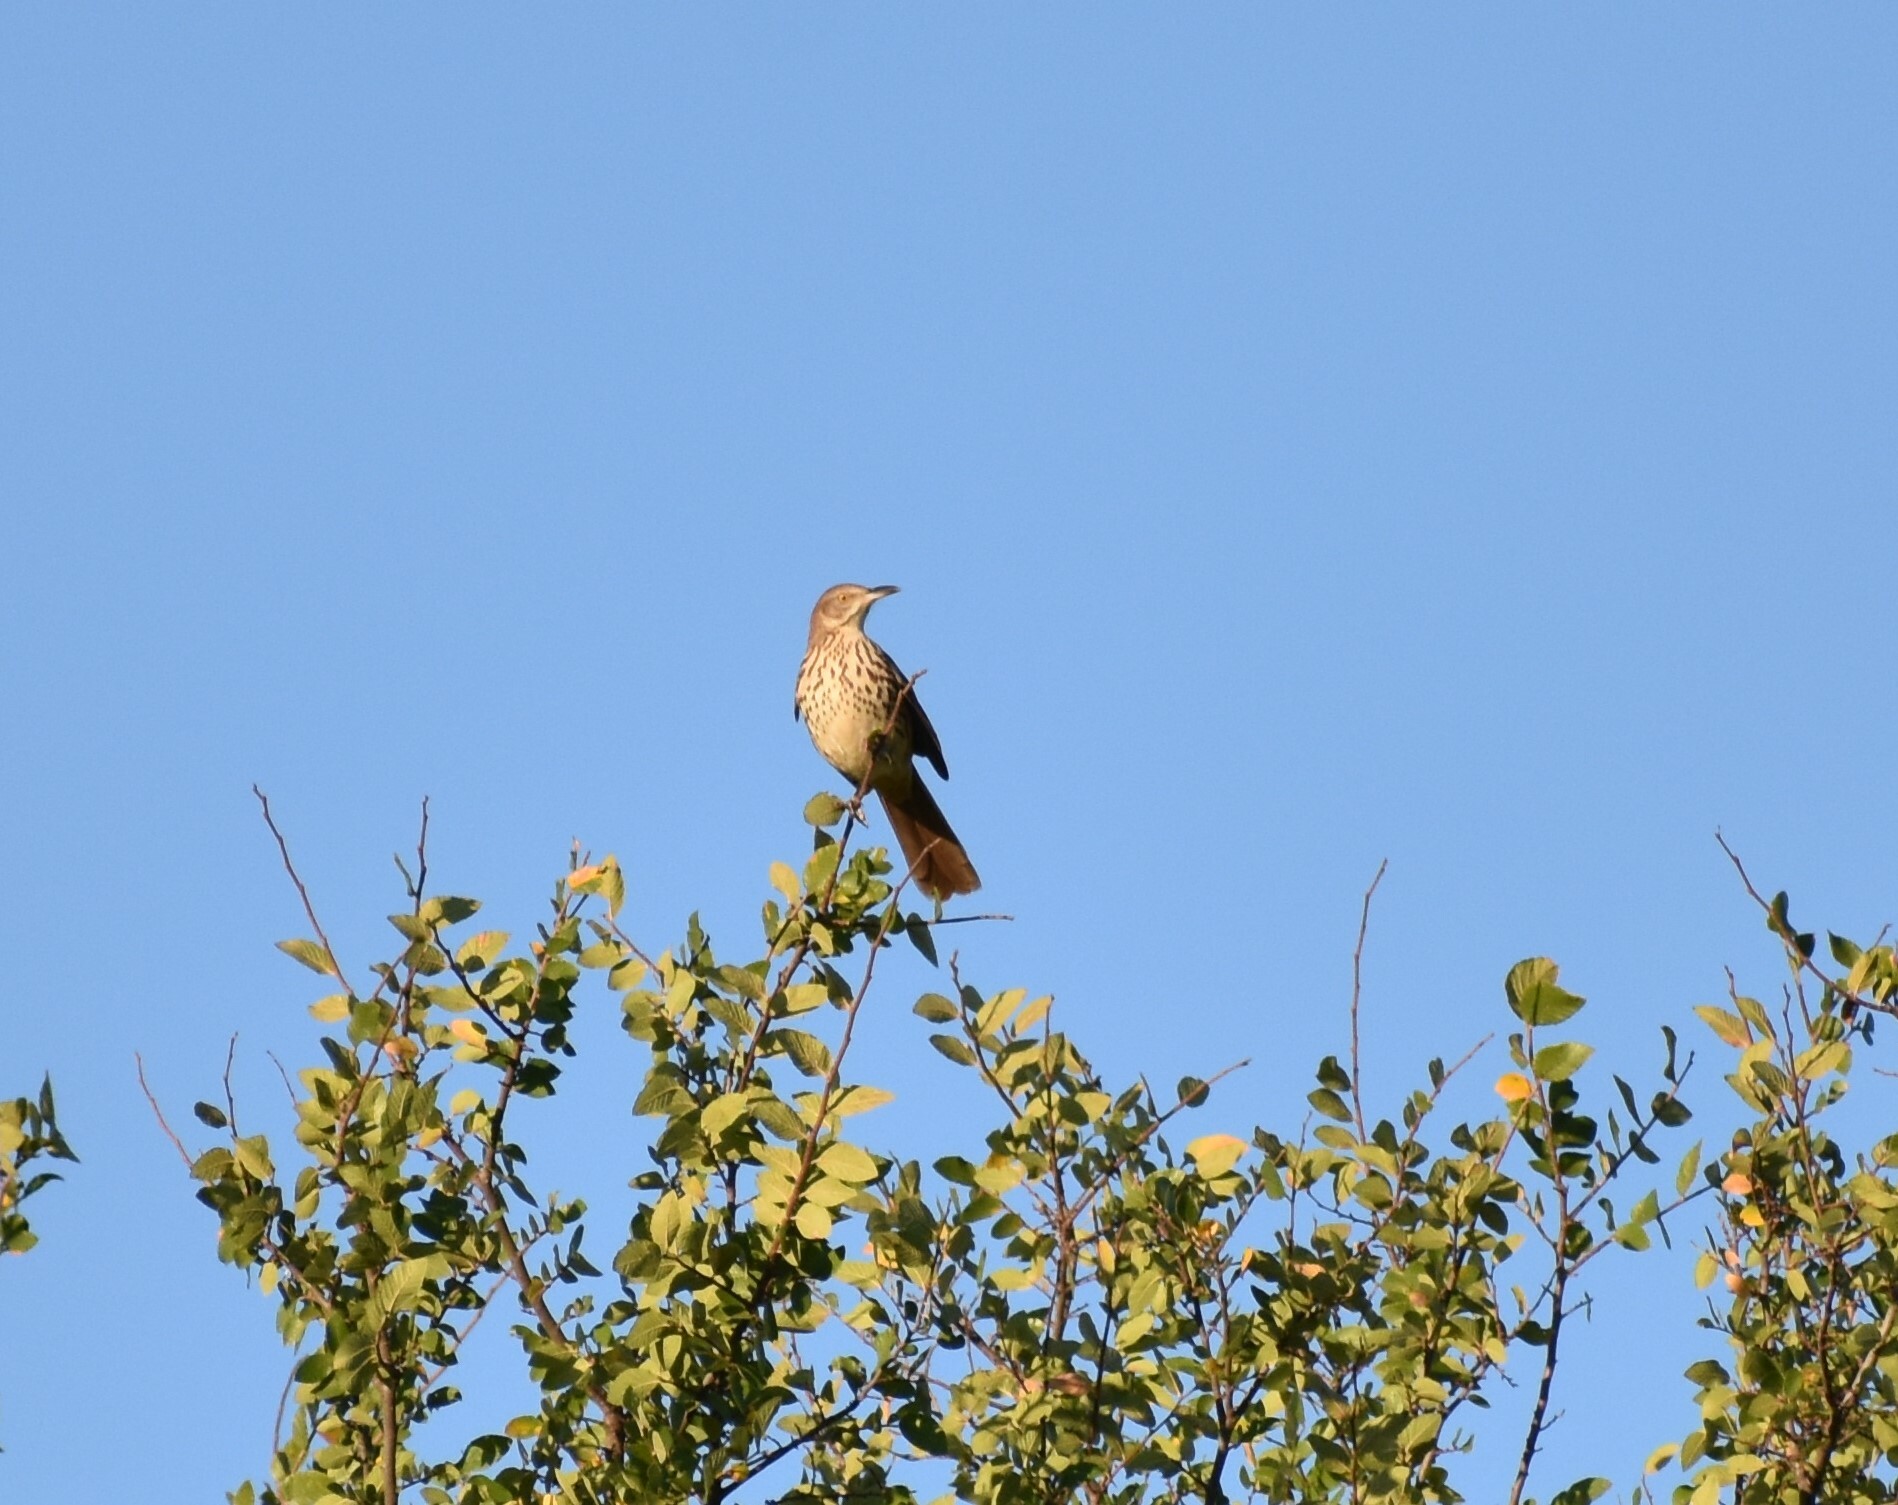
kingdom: Animalia
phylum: Chordata
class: Aves
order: Passeriformes
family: Mimidae
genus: Toxostoma
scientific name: Toxostoma rufum
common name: Brown thrasher
